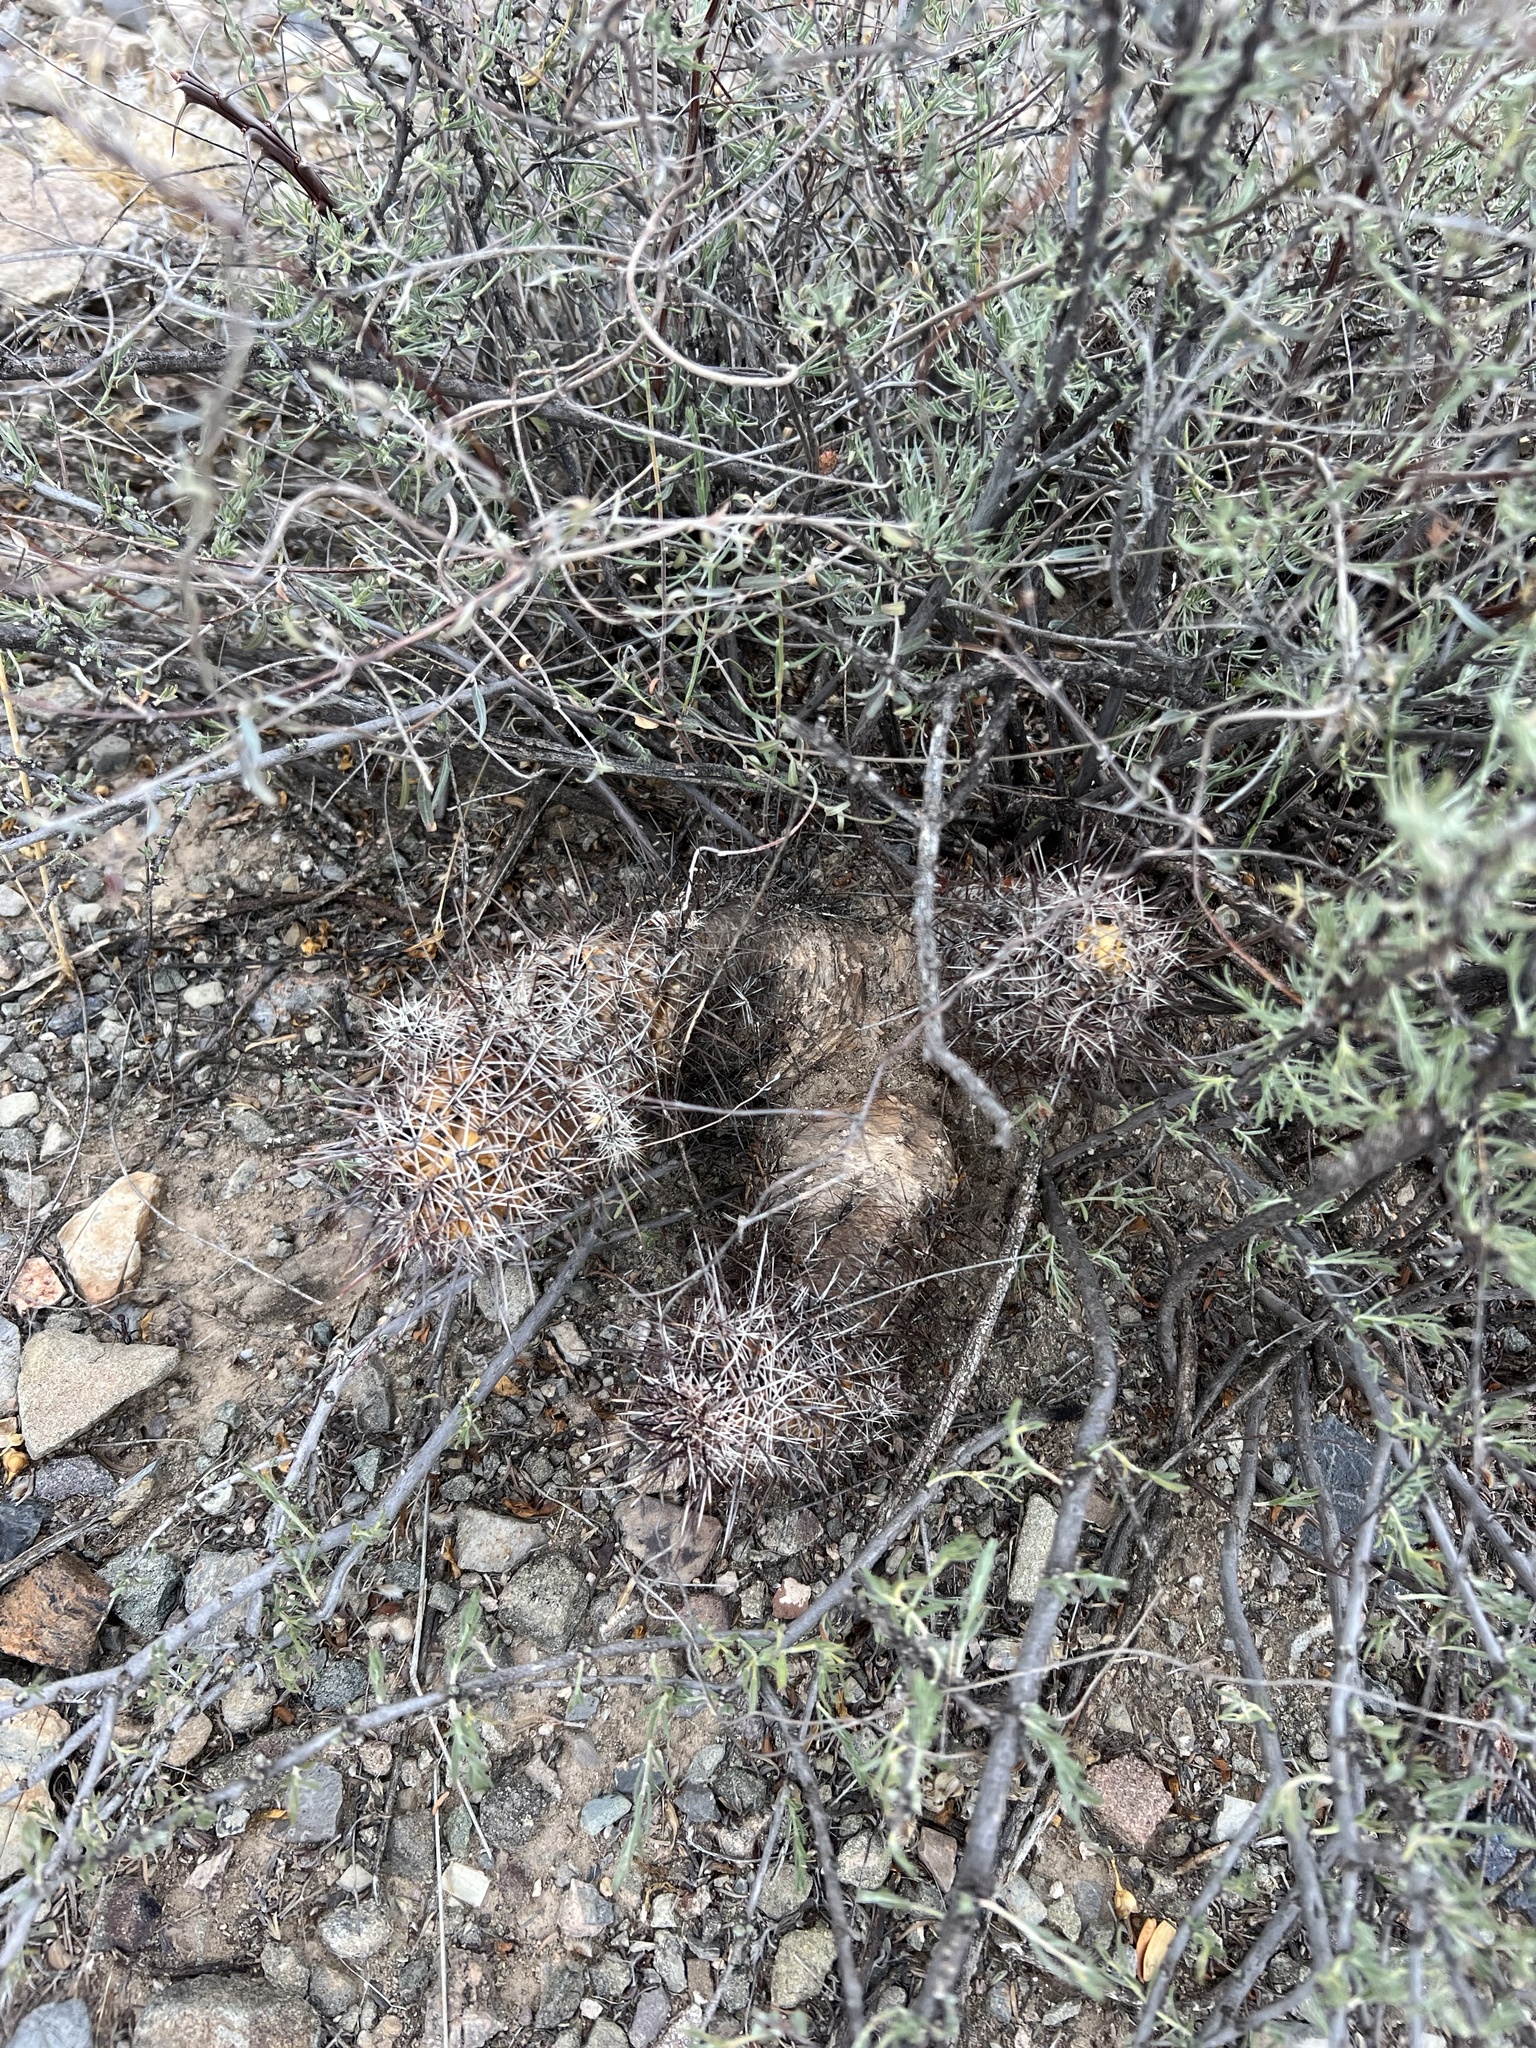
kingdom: Plantae
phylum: Tracheophyta
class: Magnoliopsida
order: Caryophyllales
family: Cactaceae
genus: Echinocereus
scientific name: Echinocereus fasciculatus
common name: Bundle hedgehog
